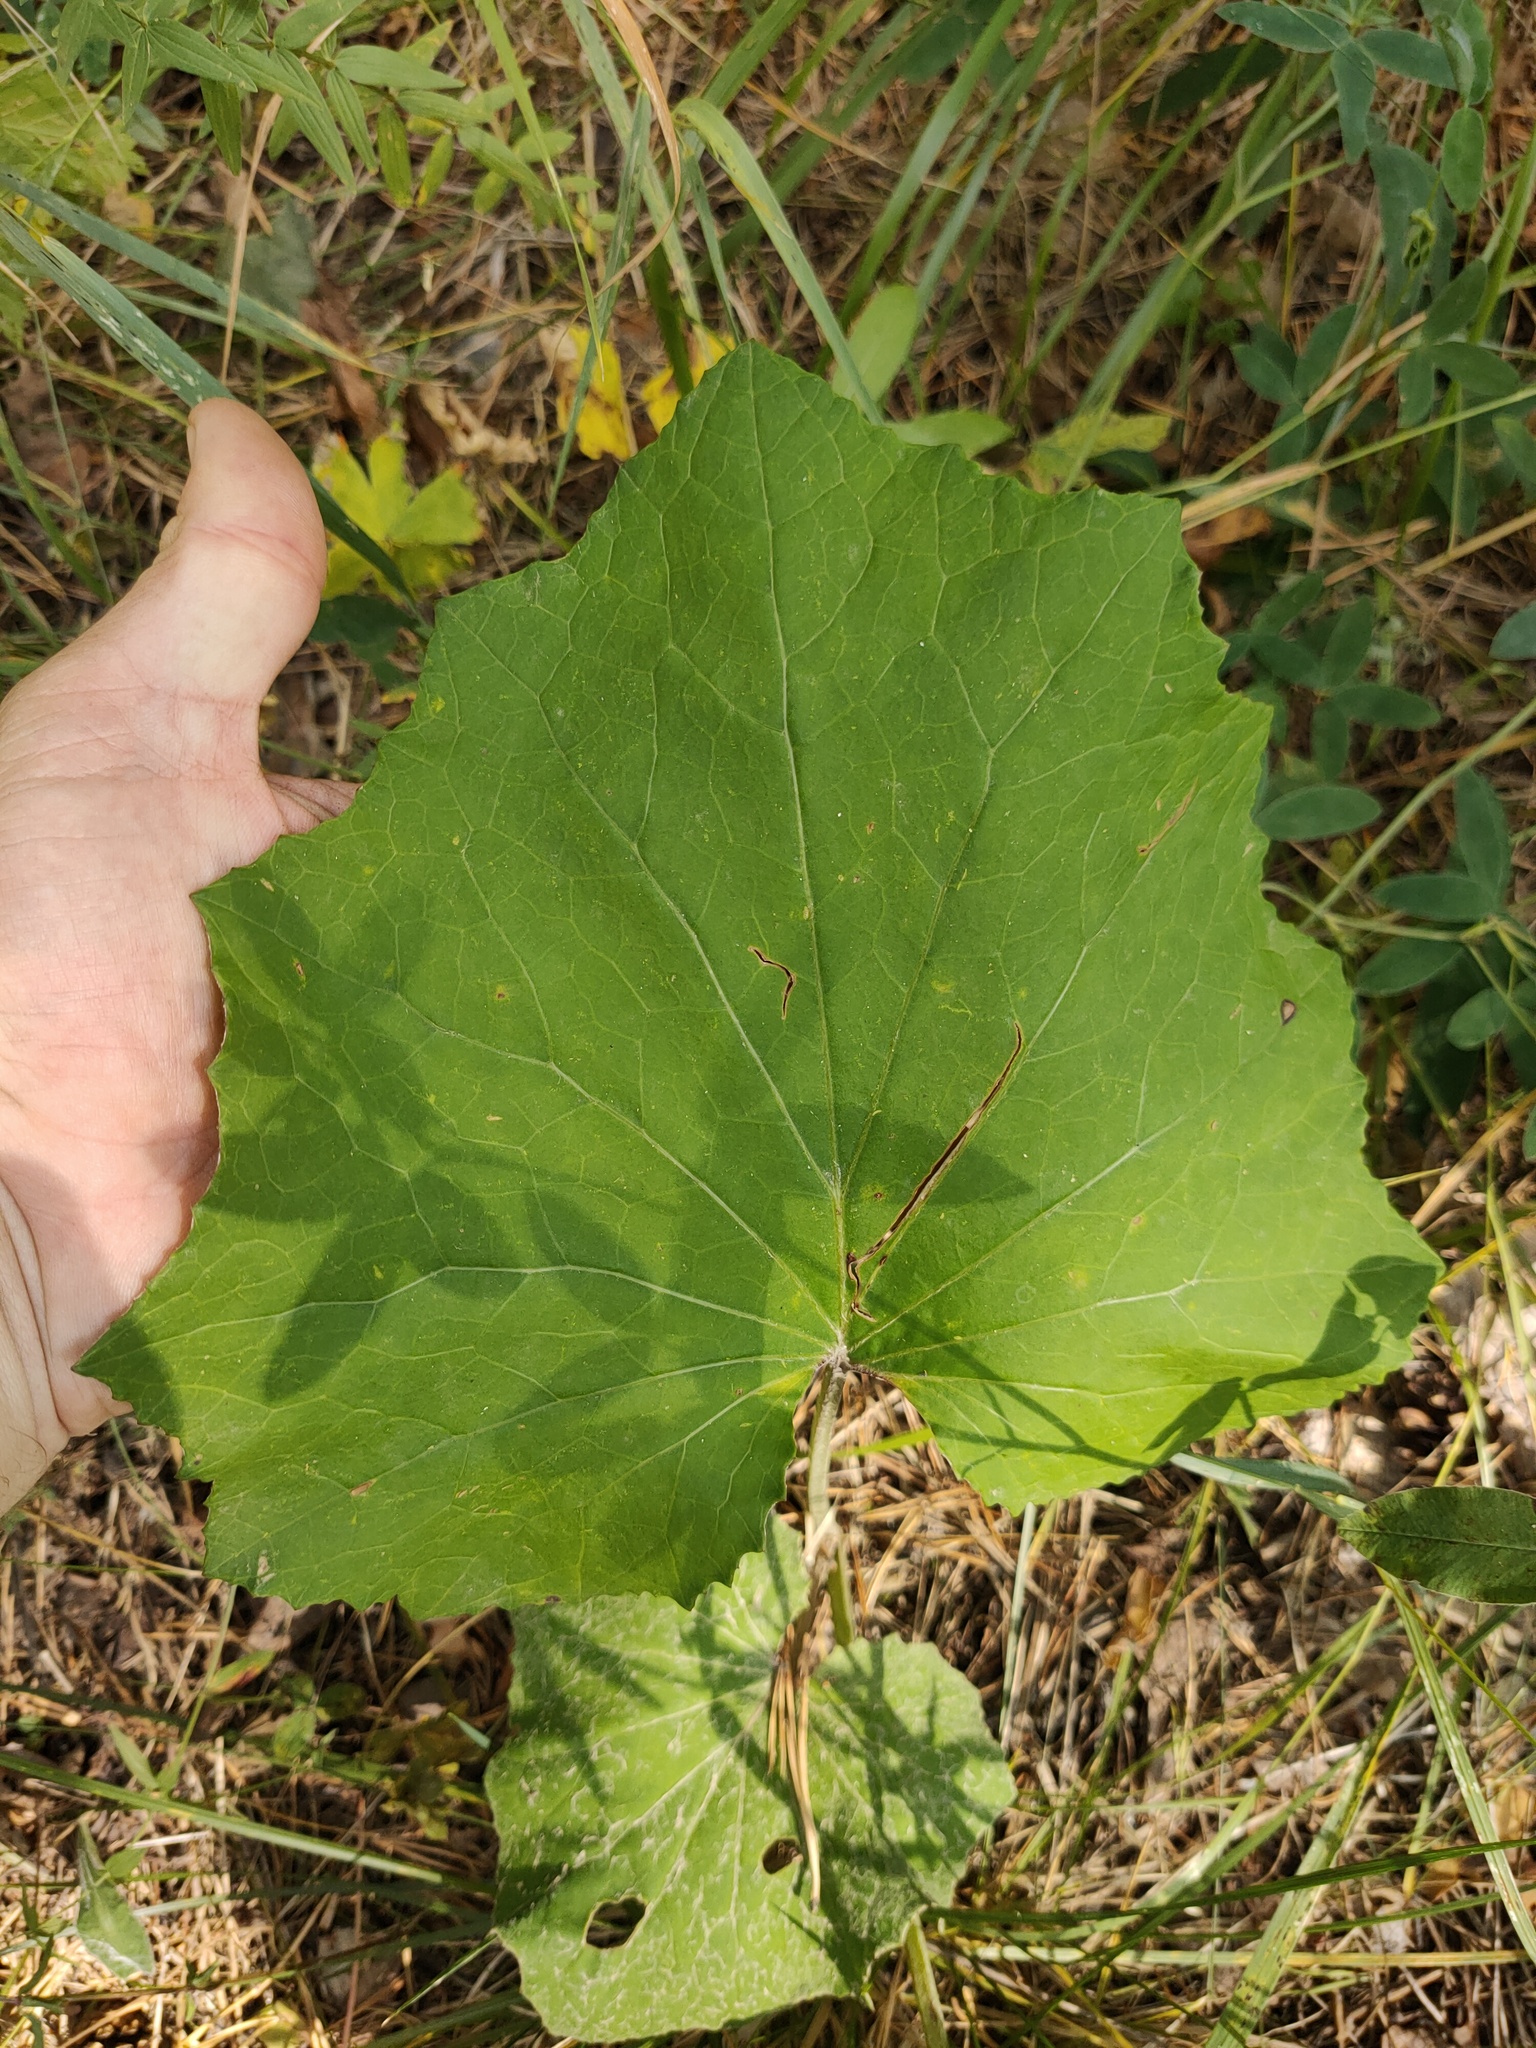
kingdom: Plantae
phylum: Tracheophyta
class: Magnoliopsida
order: Asterales
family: Asteraceae
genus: Tussilago
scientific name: Tussilago farfara
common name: Coltsfoot
